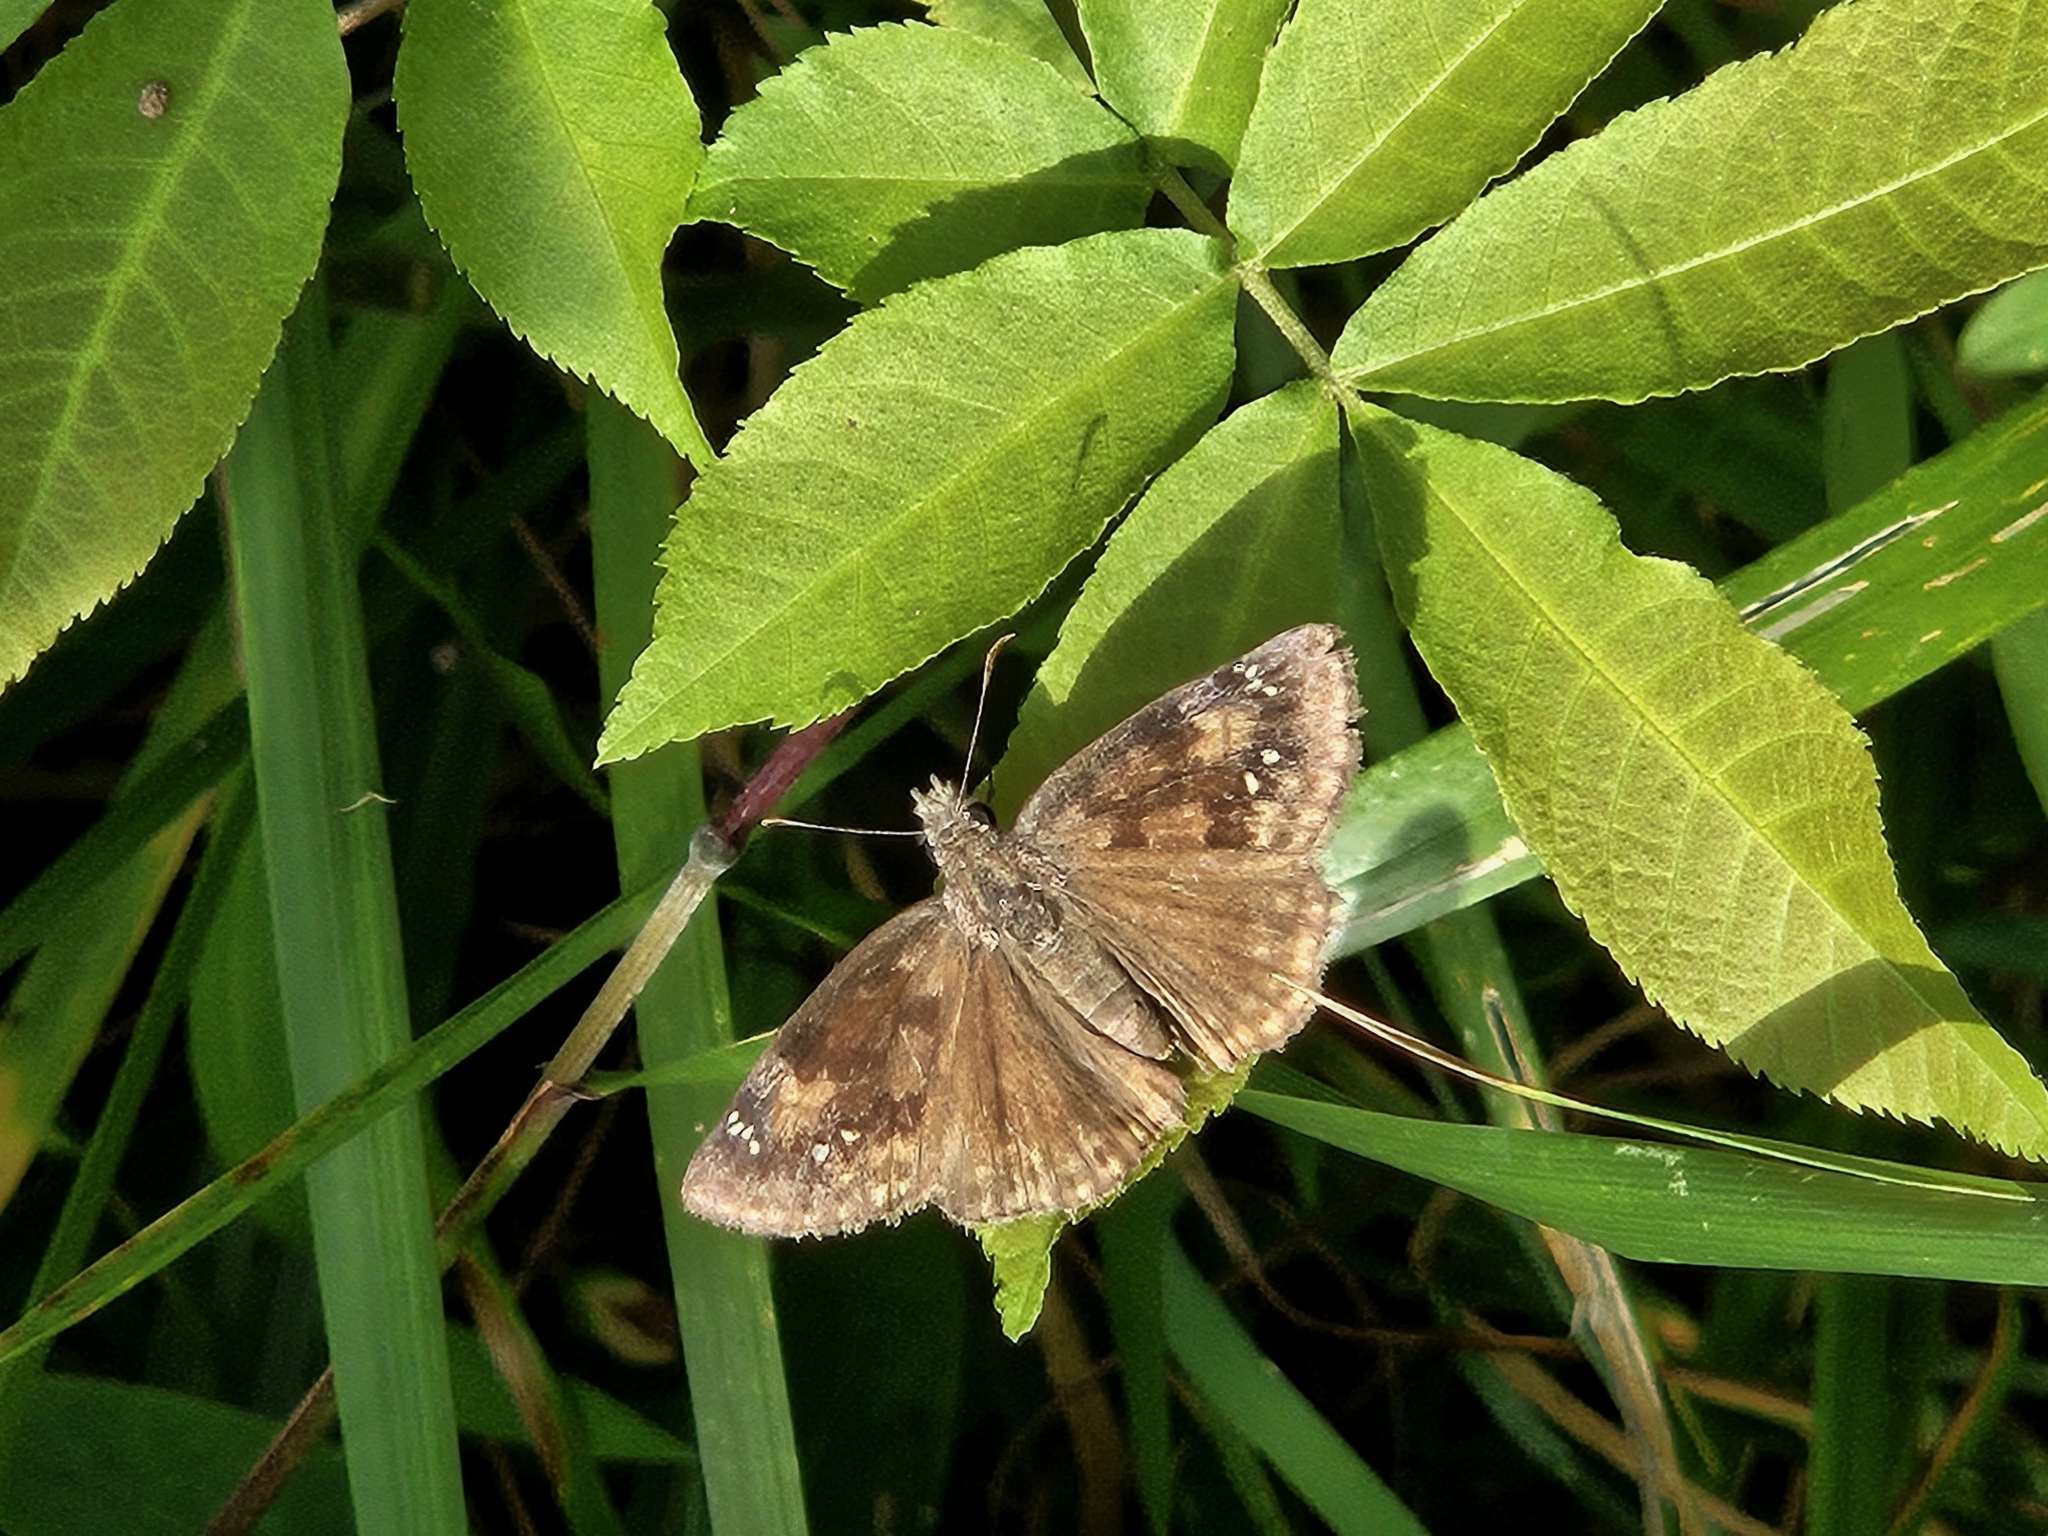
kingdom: Animalia
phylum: Arthropoda
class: Insecta
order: Lepidoptera
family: Hesperiidae
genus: Erynnis
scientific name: Erynnis baptisiae
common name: Wild indigo duskywing
